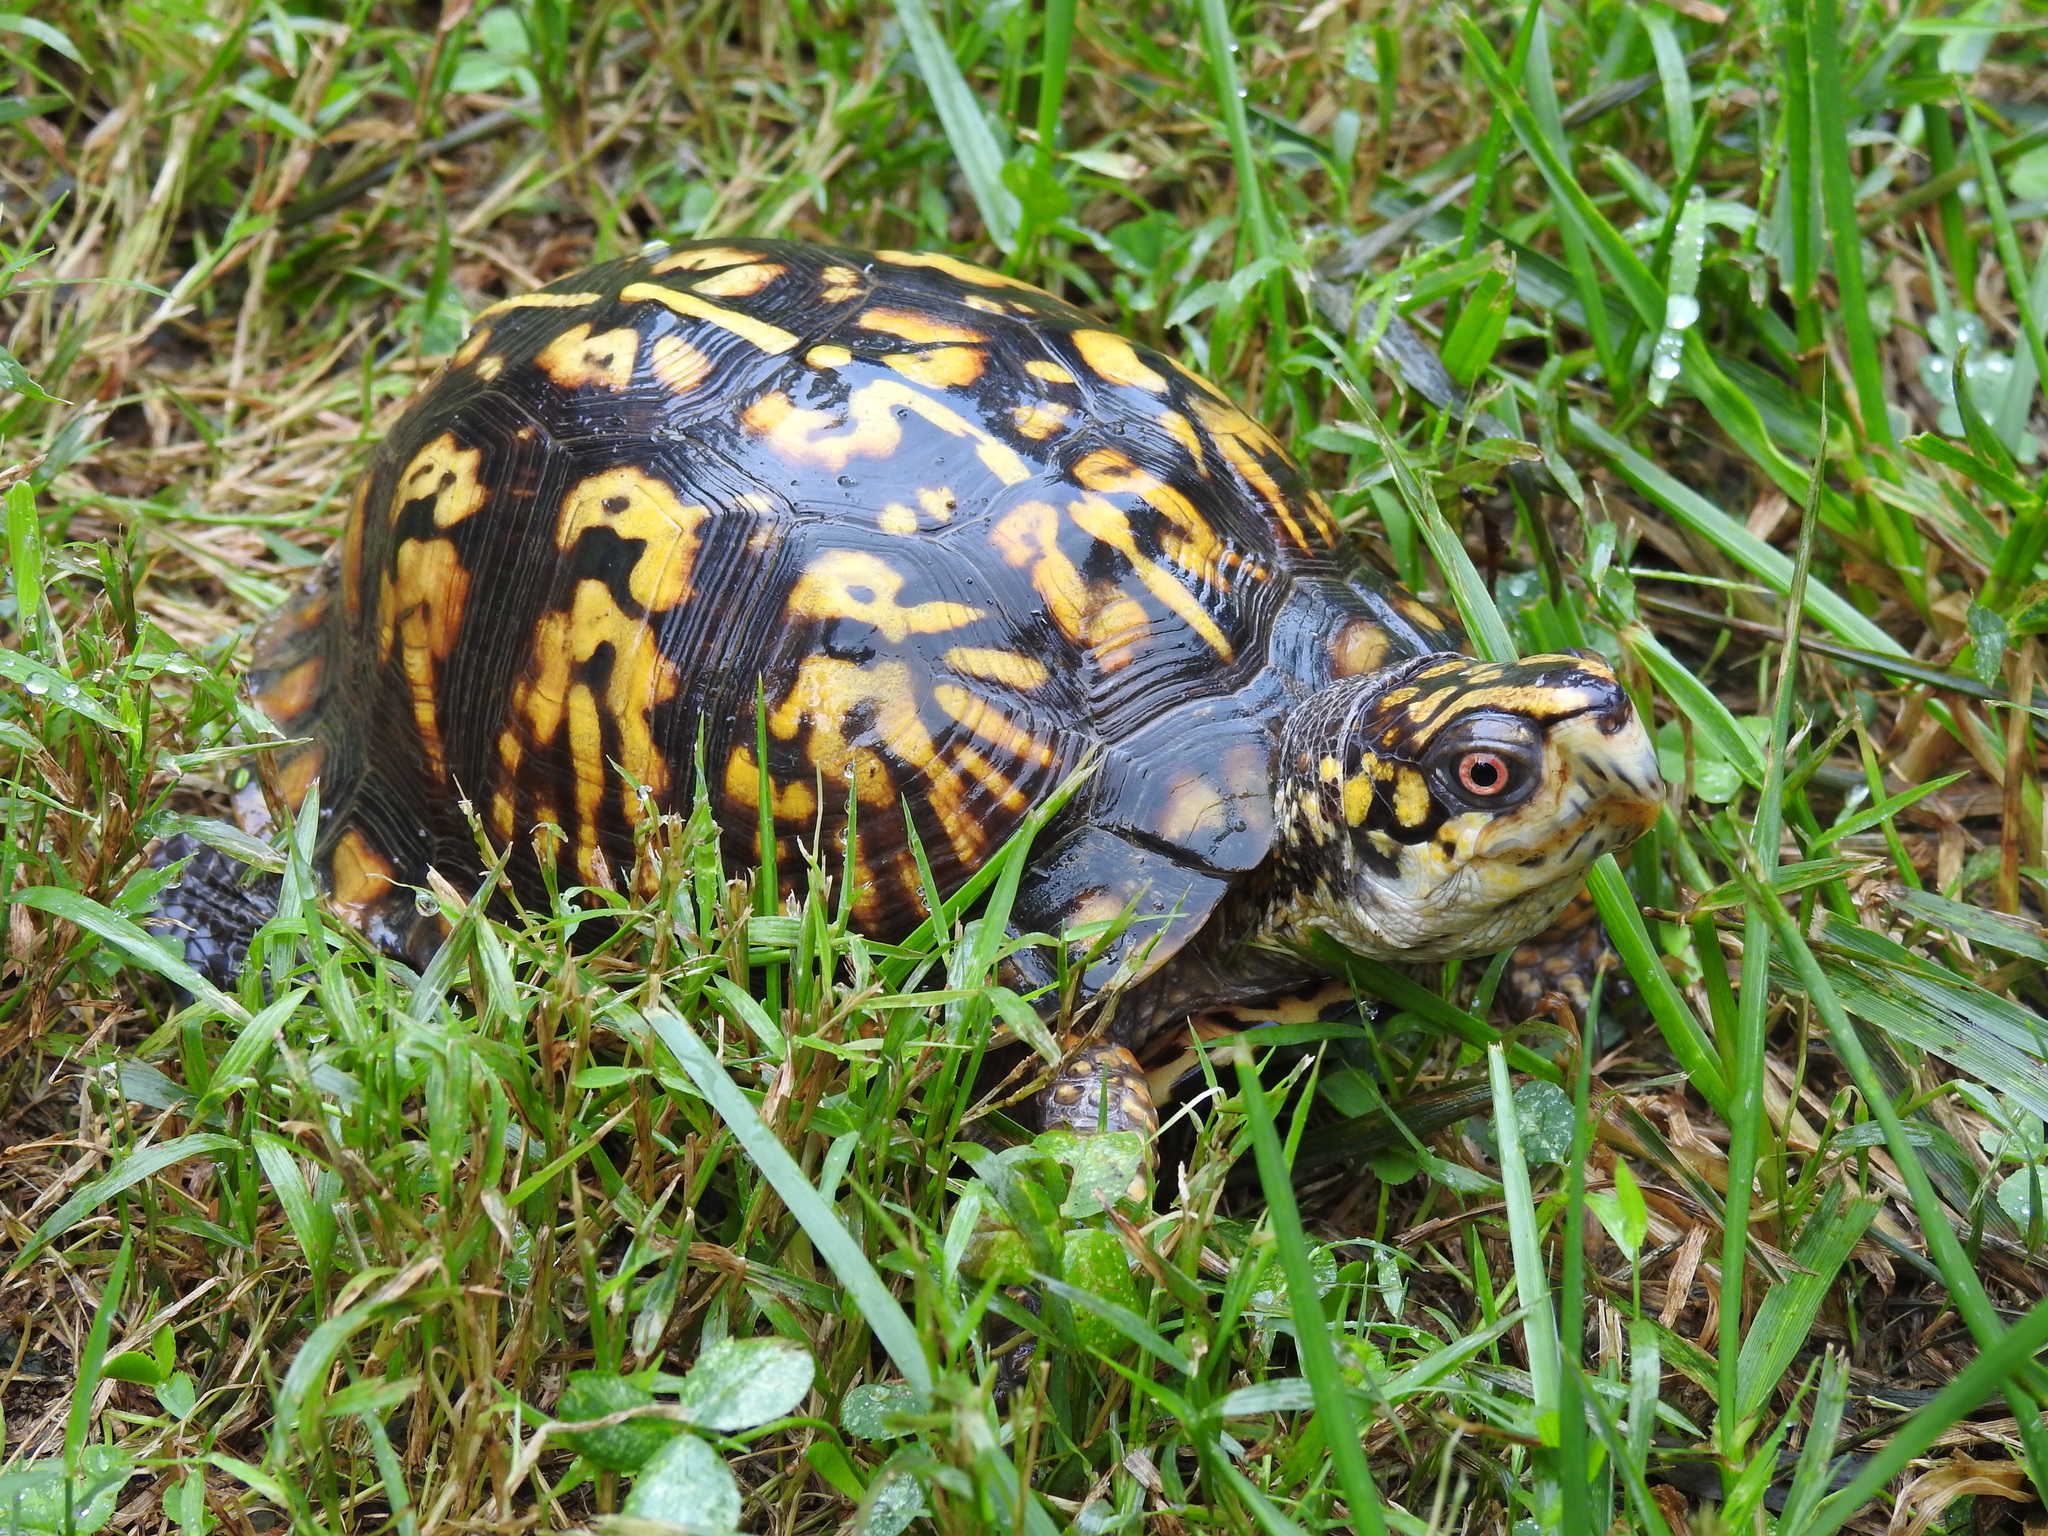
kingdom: Animalia
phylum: Chordata
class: Testudines
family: Emydidae
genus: Terrapene
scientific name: Terrapene carolina
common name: Common box turtle
